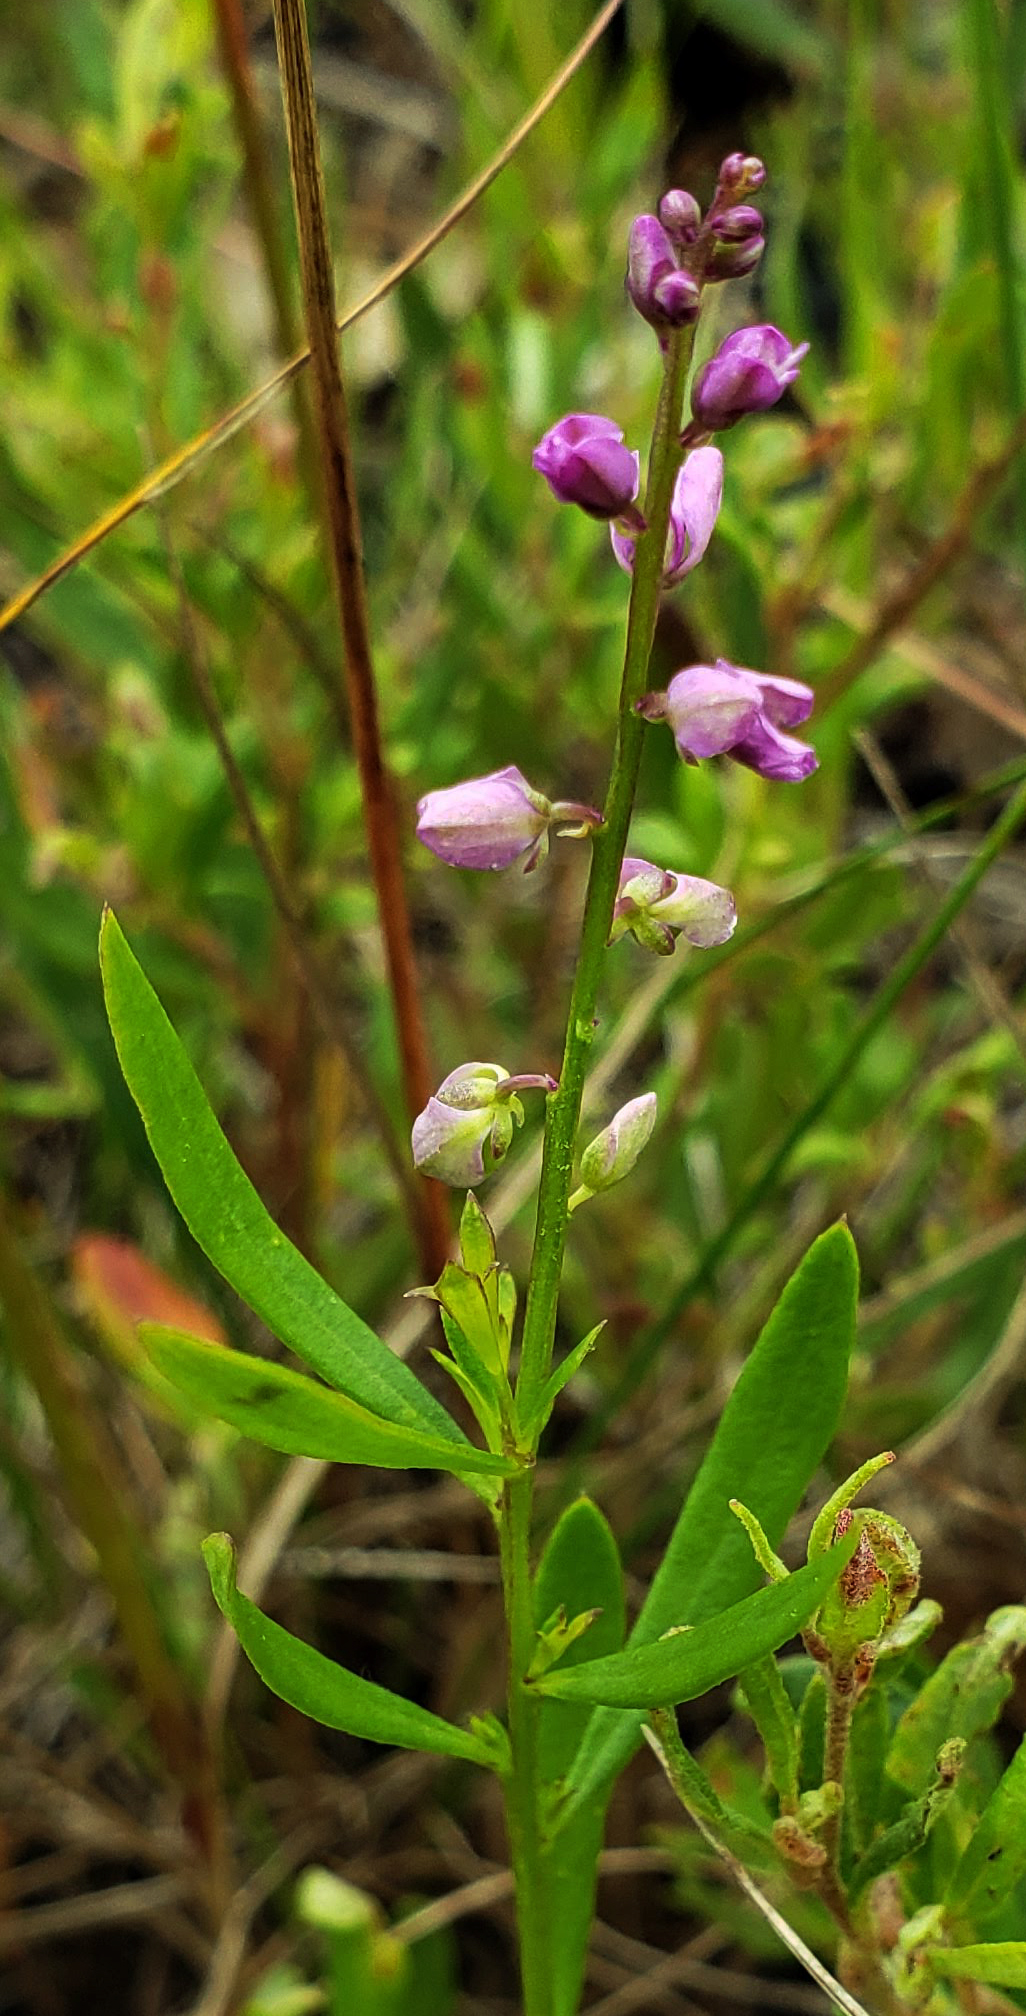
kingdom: Plantae
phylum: Tracheophyta
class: Magnoliopsida
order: Fabales
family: Polygalaceae
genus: Polygala
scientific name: Polygala polygama
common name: Bitter milkwort
